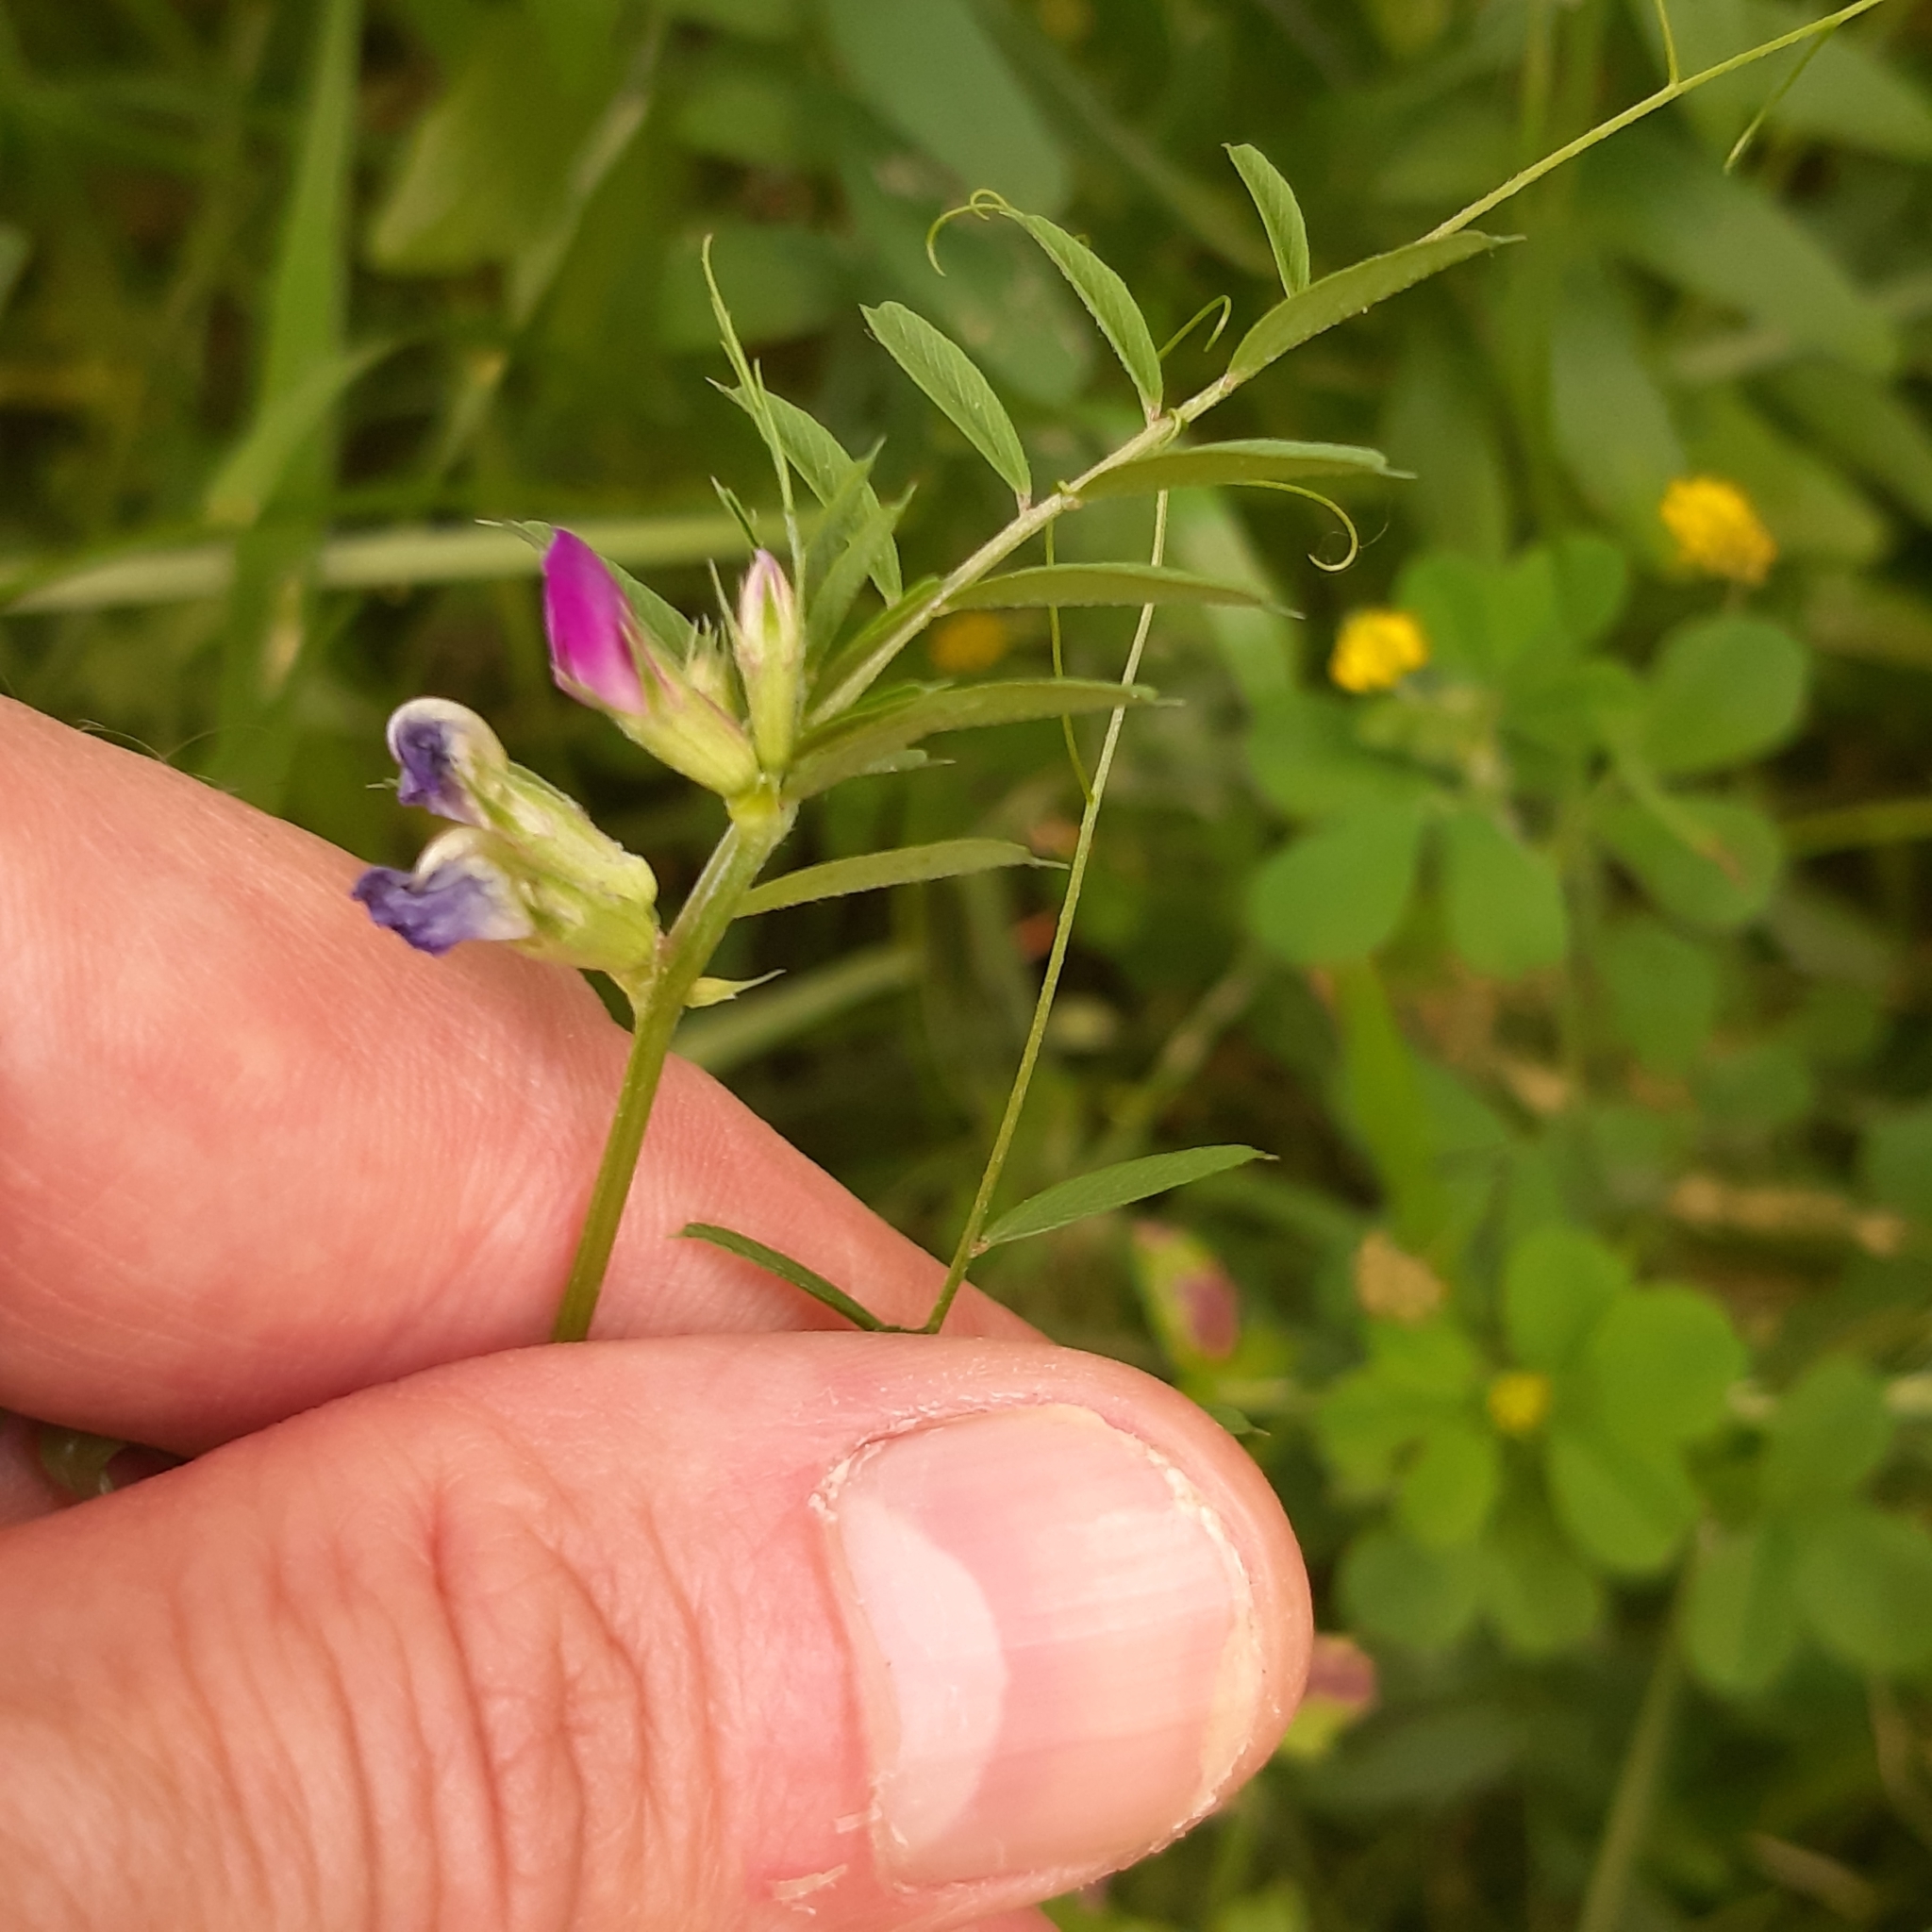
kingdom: Plantae
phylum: Tracheophyta
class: Magnoliopsida
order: Fabales
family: Fabaceae
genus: Vicia
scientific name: Vicia sativa
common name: Garden vetch
